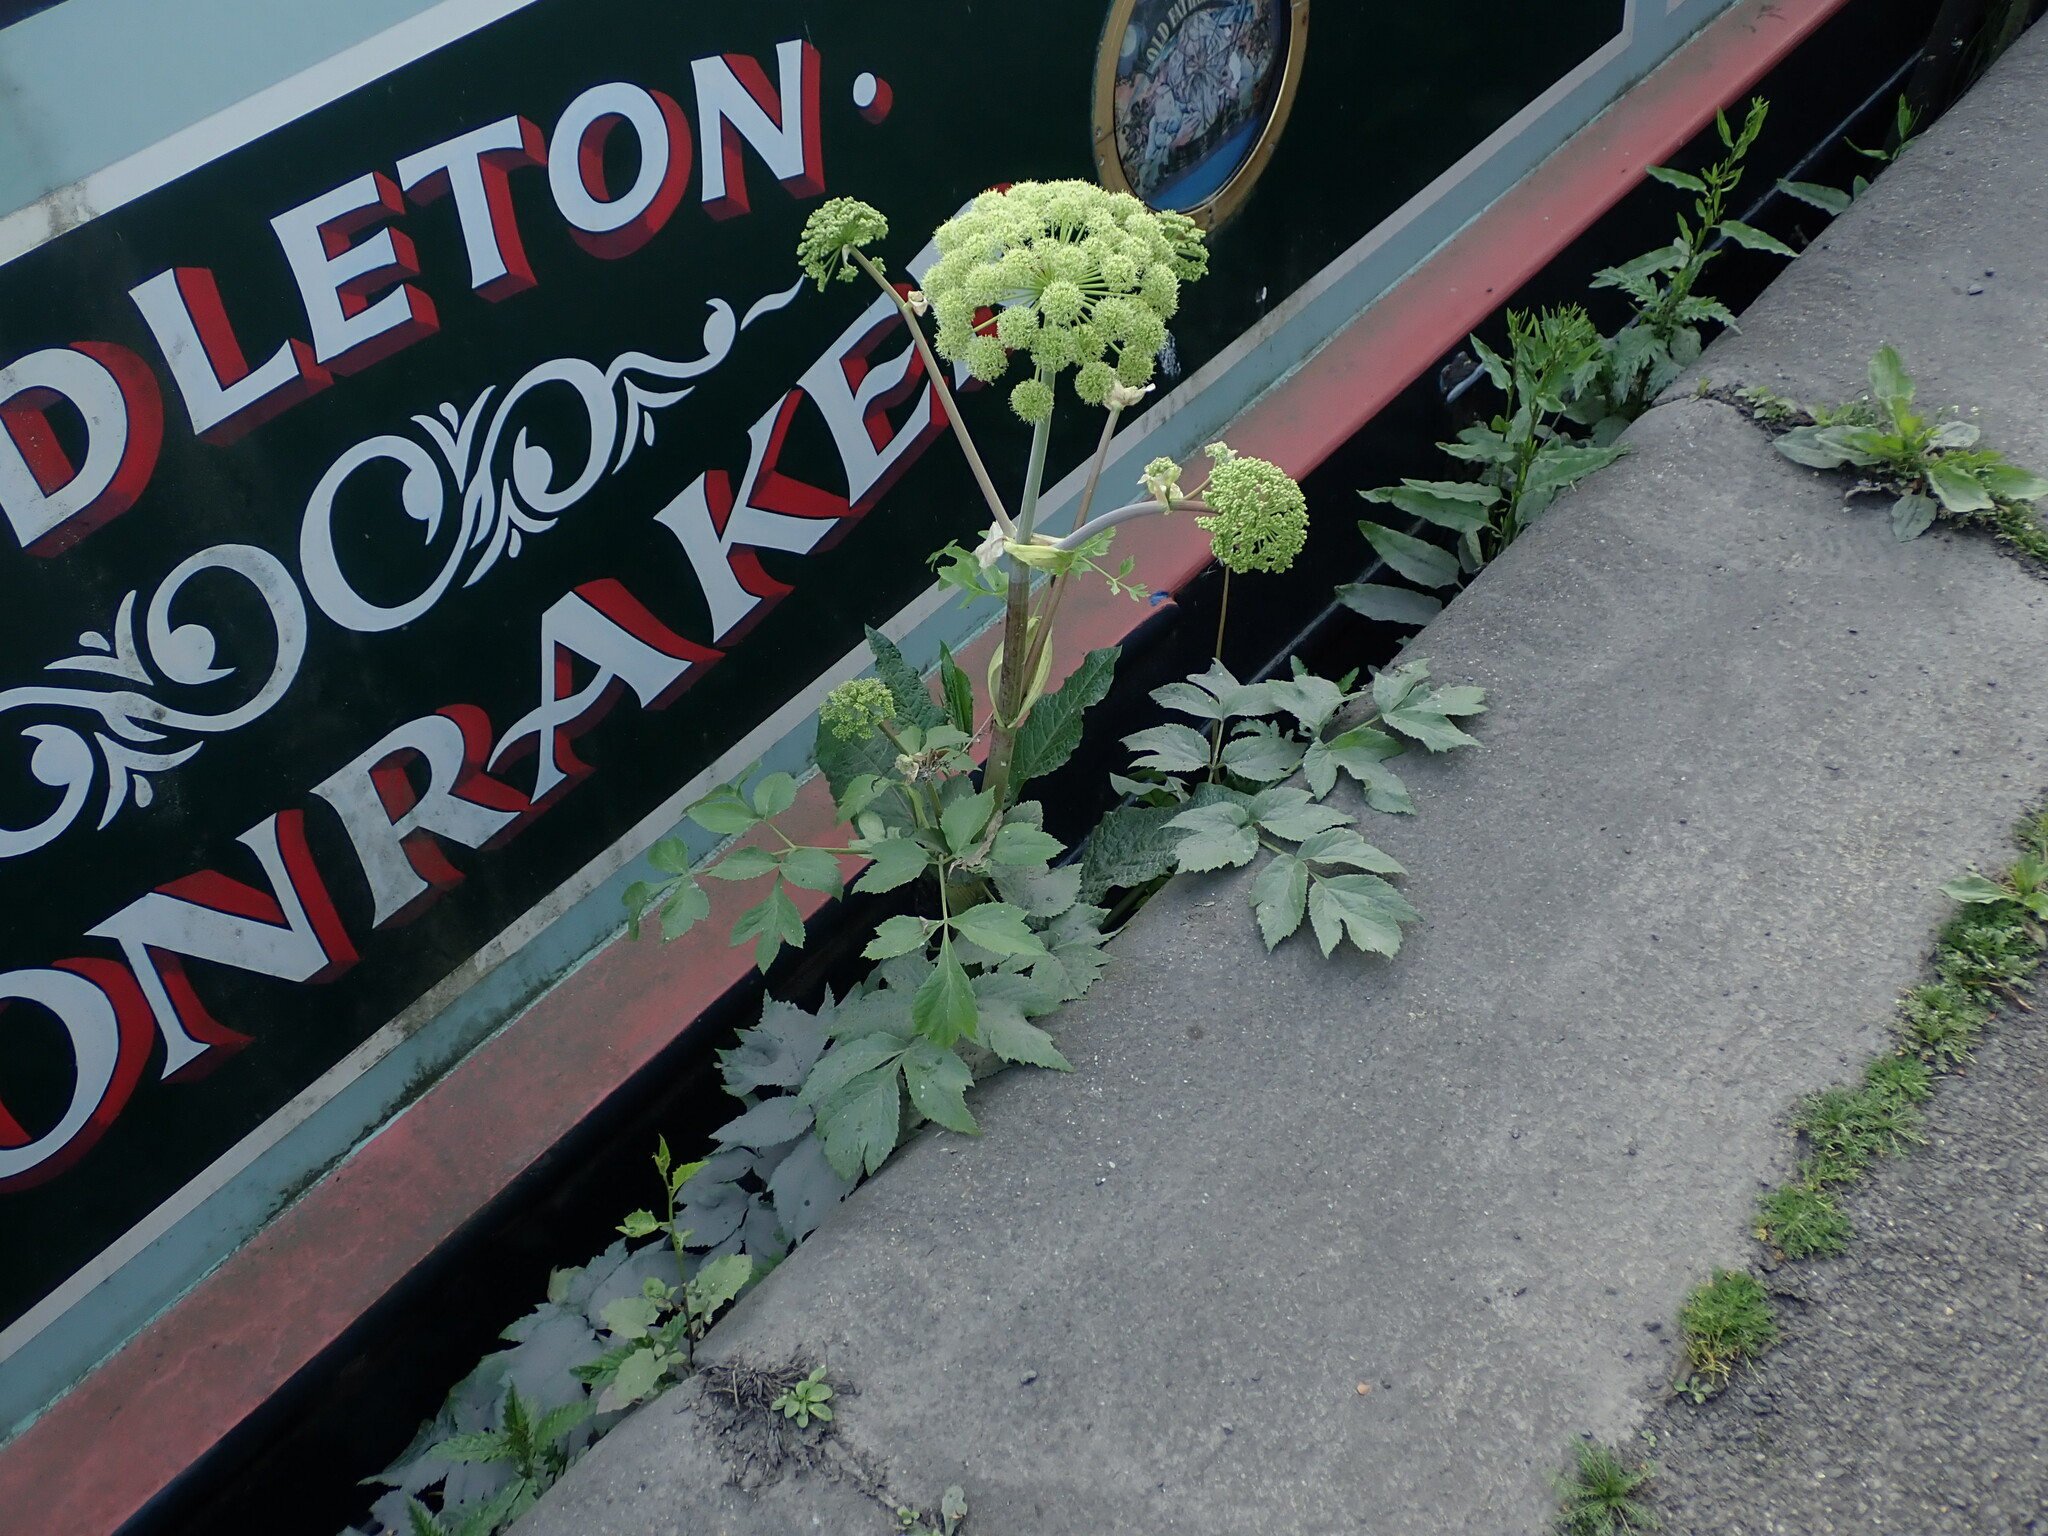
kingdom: Plantae
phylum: Tracheophyta
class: Magnoliopsida
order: Apiales
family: Apiaceae
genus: Angelica
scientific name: Angelica archangelica
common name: Garden angelica
